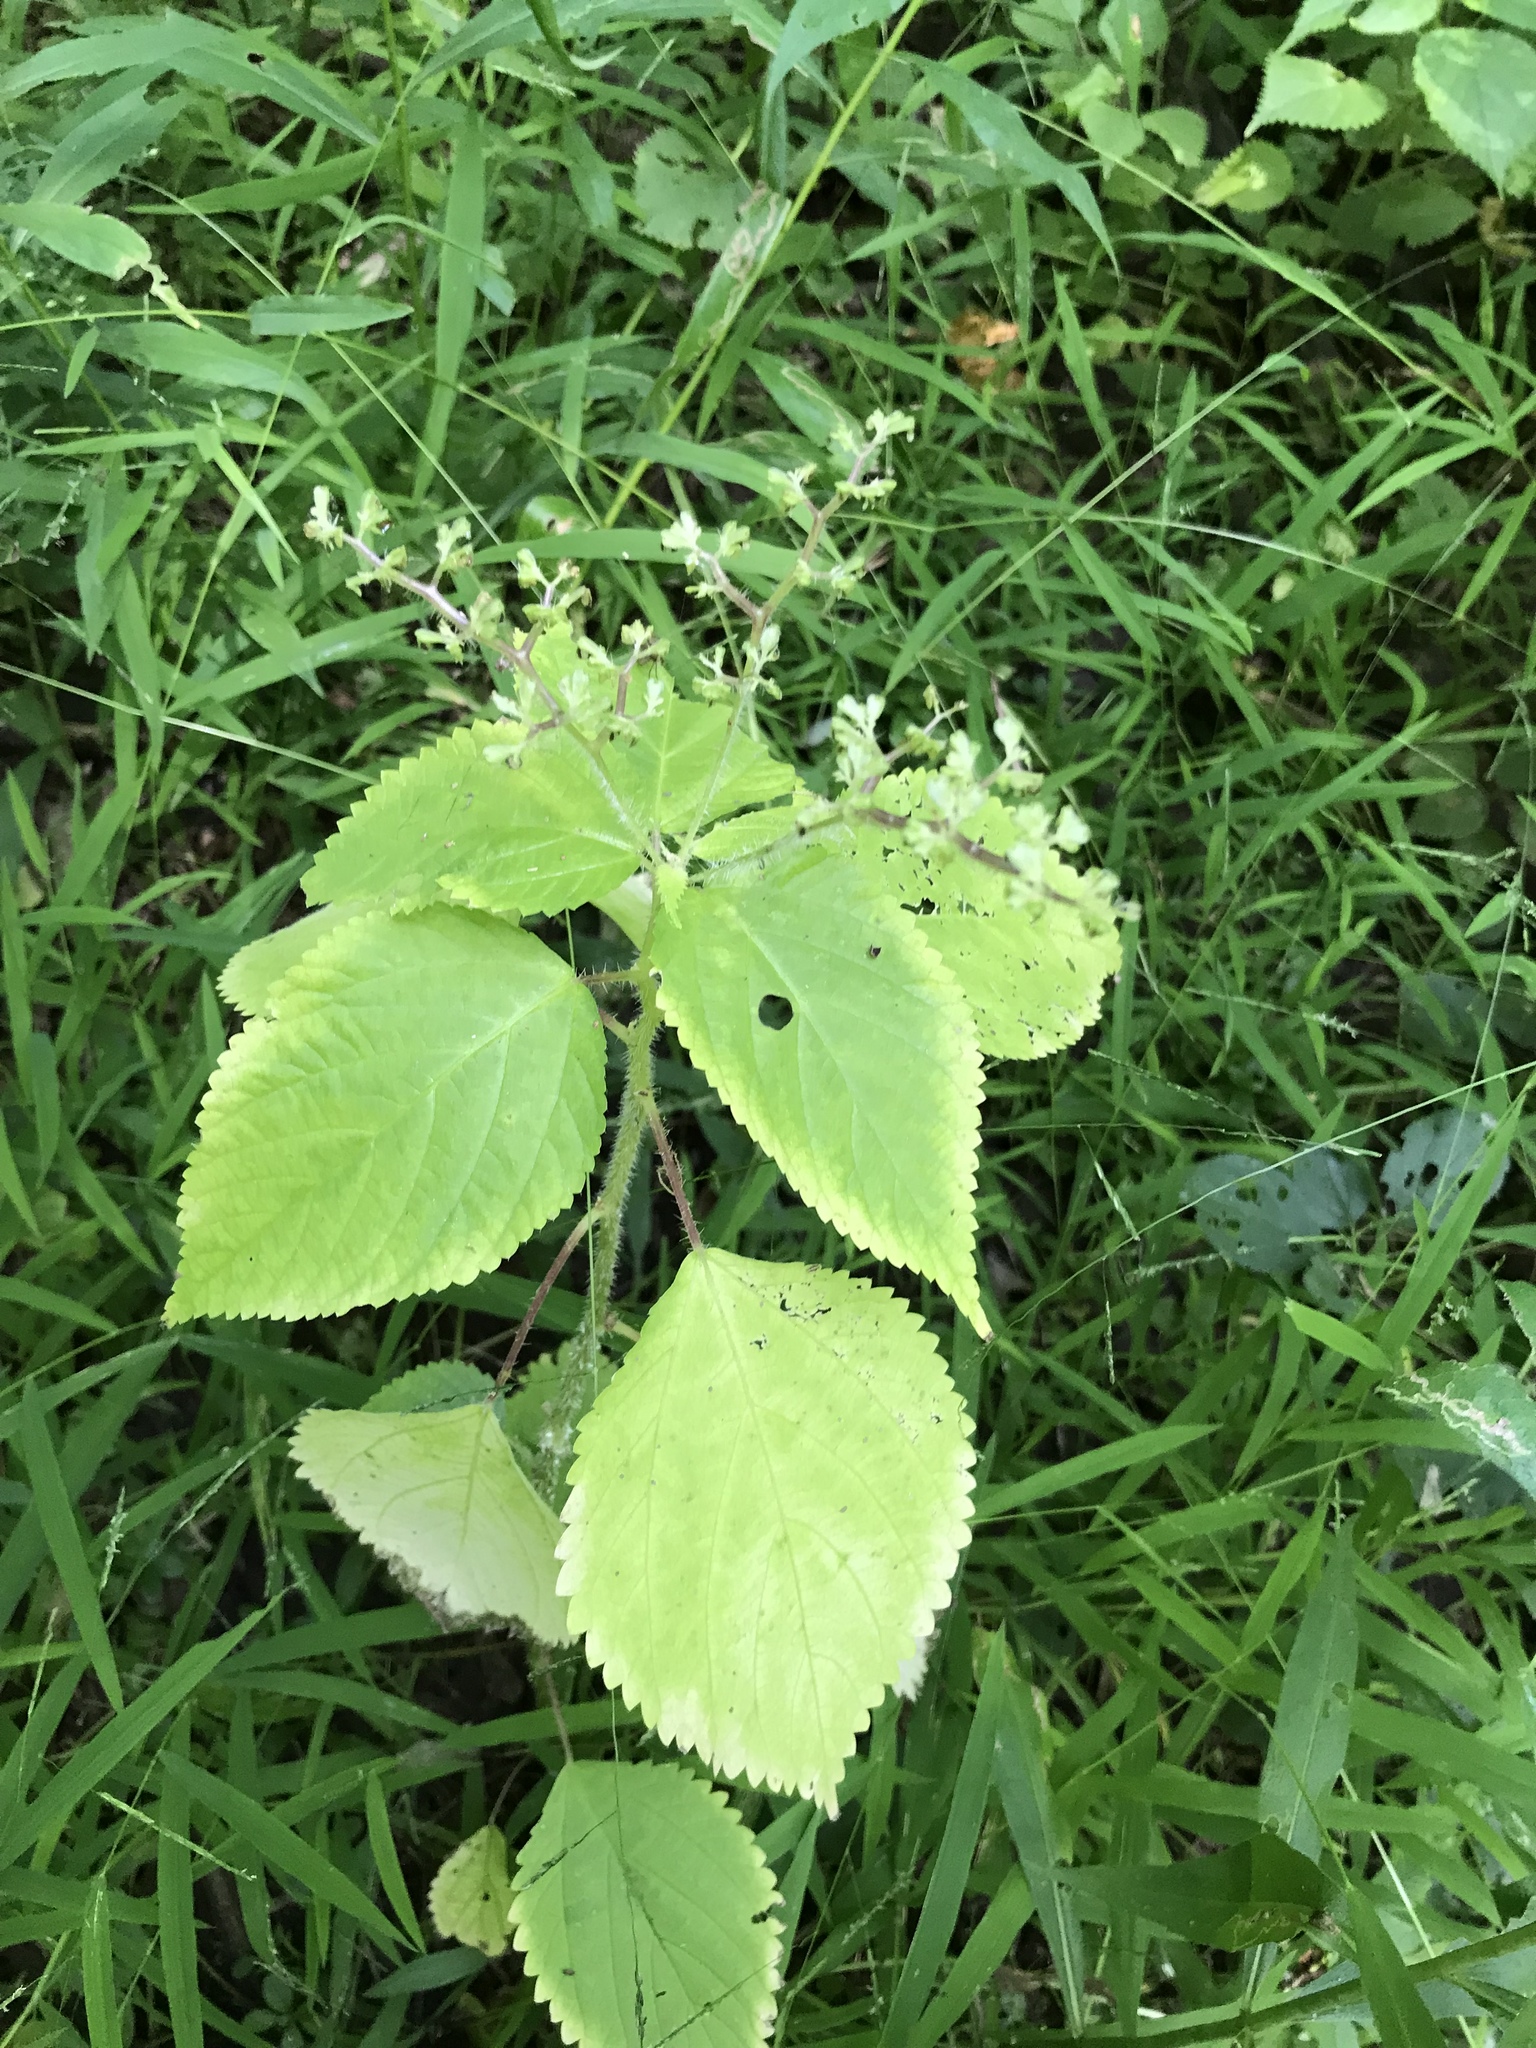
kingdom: Plantae
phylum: Tracheophyta
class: Magnoliopsida
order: Rosales
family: Urticaceae
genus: Laportea
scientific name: Laportea canadensis
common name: Canada nettle
